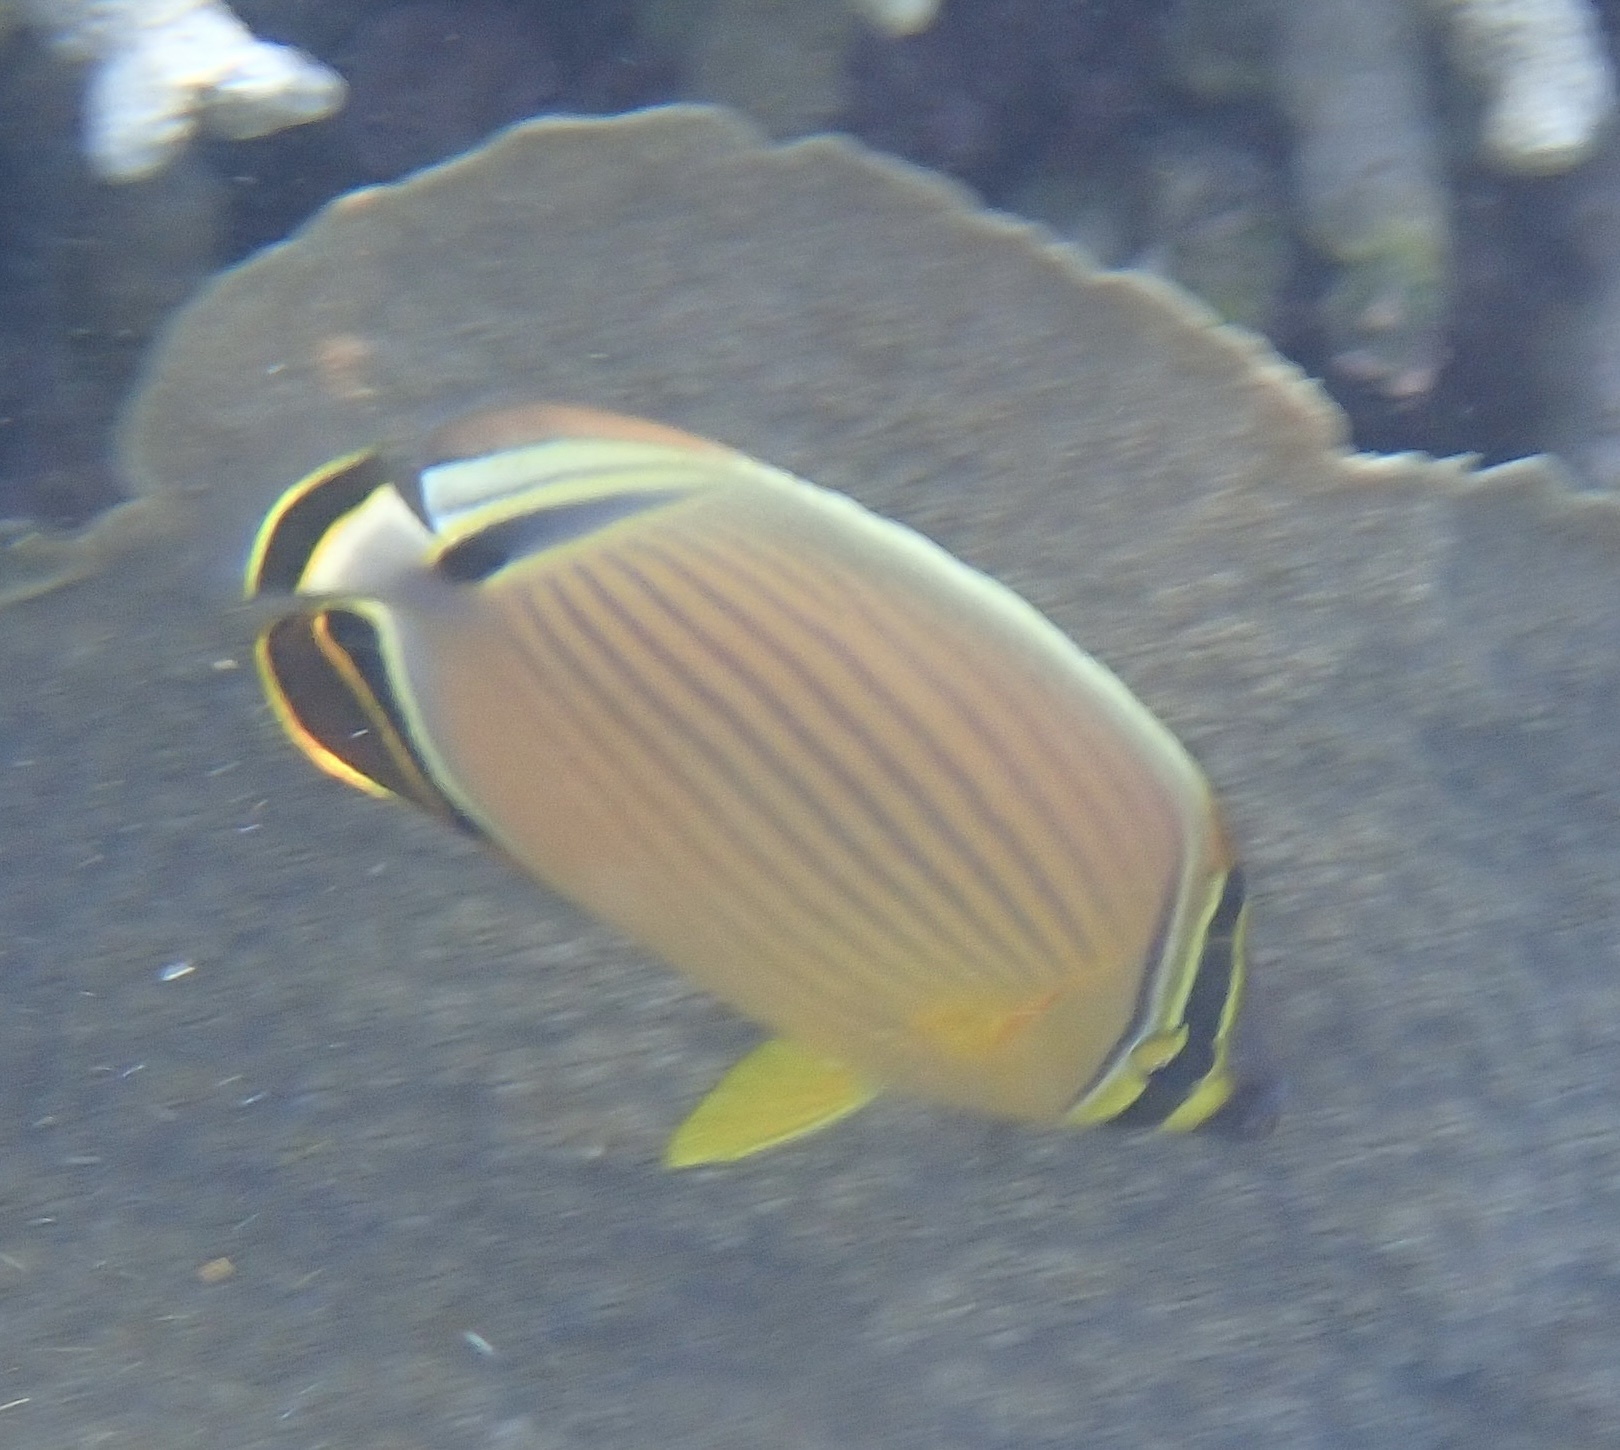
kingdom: Animalia
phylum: Chordata
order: Perciformes
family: Chaetodontidae
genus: Chaetodon
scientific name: Chaetodon lunulatus
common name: Redfin butterflyfish
